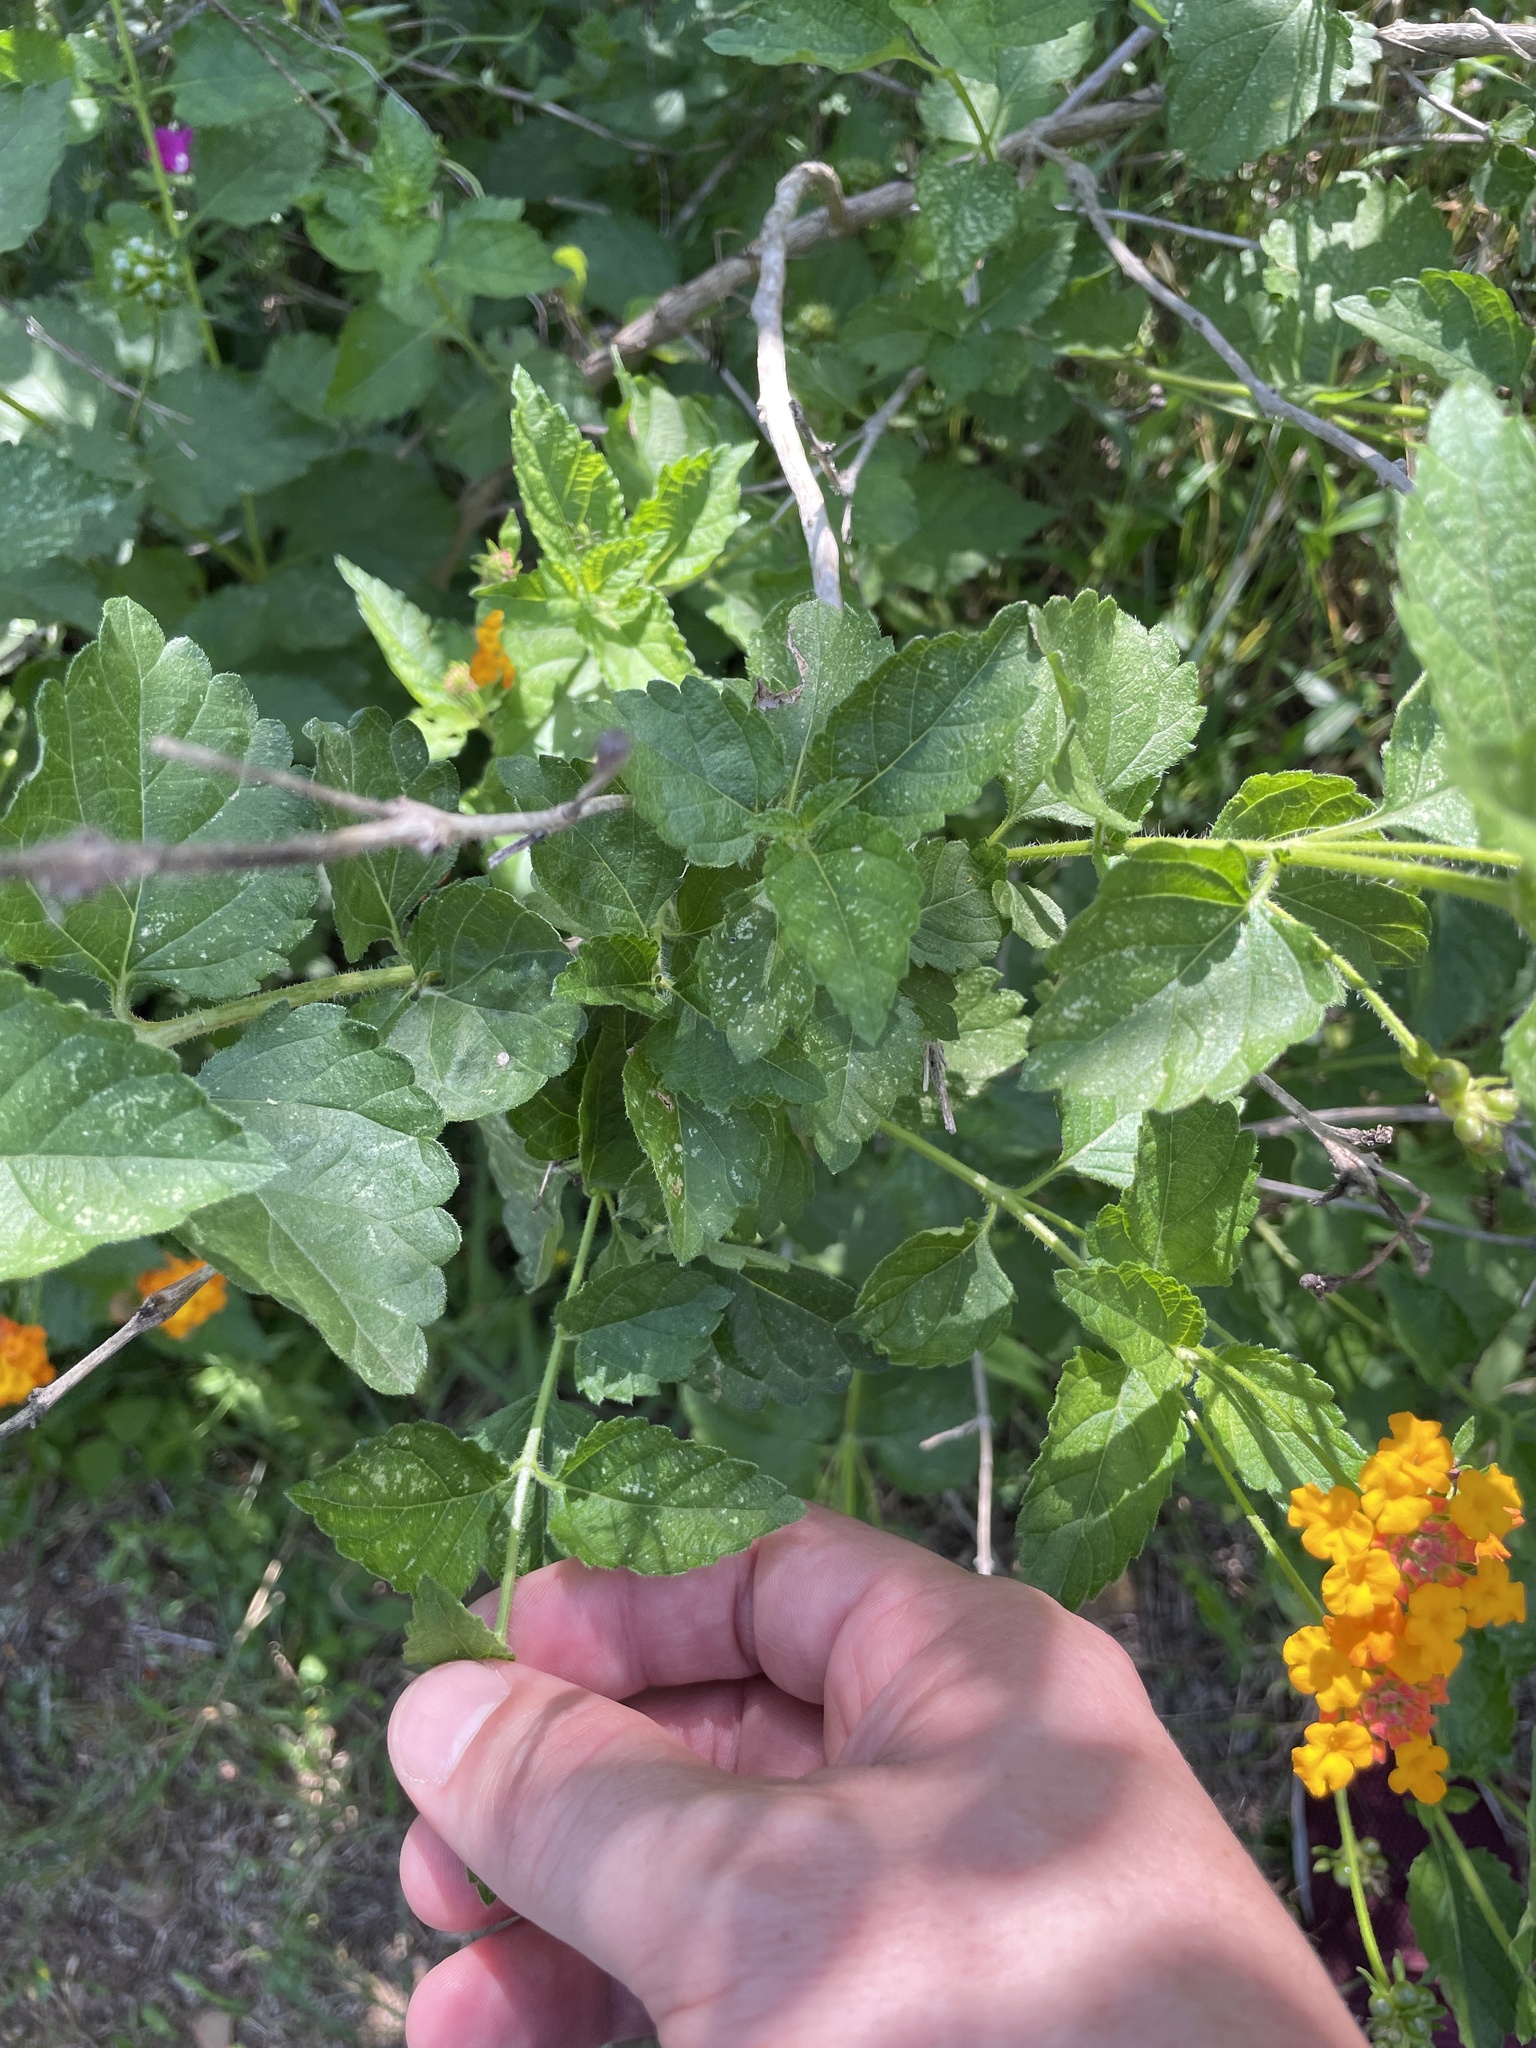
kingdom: Plantae
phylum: Tracheophyta
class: Magnoliopsida
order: Lamiales
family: Verbenaceae
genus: Lantana
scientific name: Lantana urticoides
